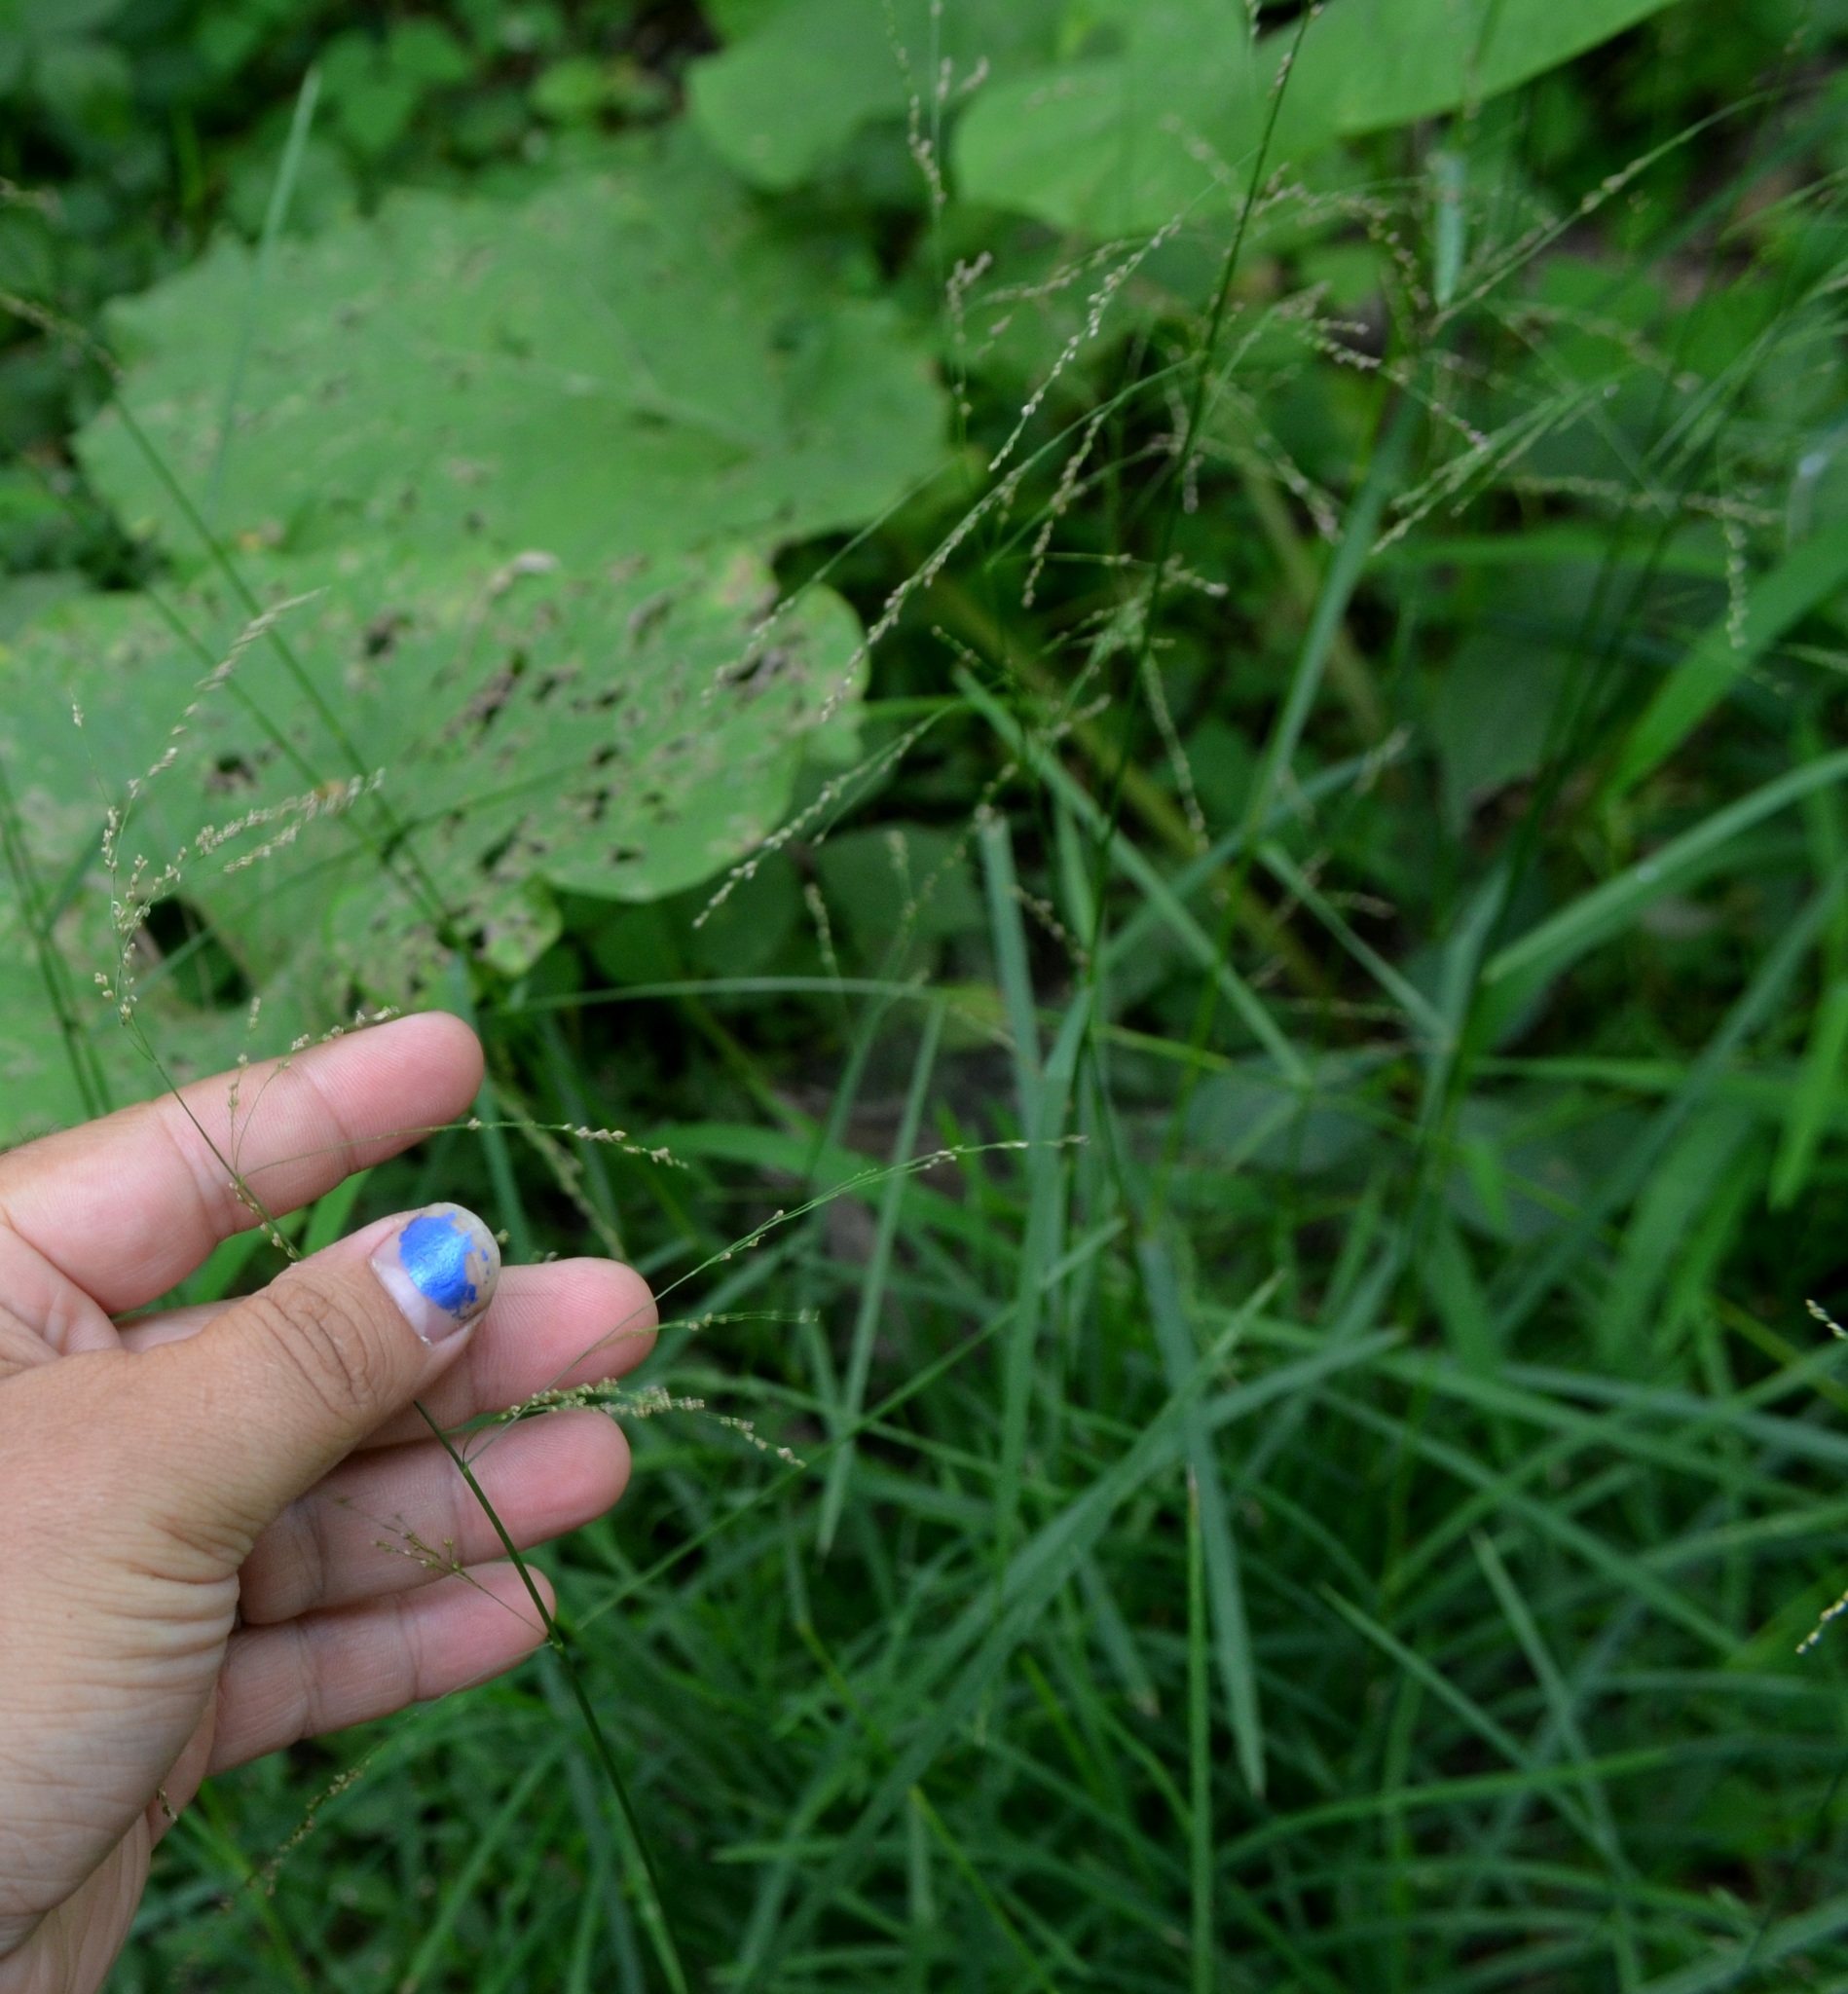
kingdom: Plantae
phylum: Tracheophyta
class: Liliopsida
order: Poales
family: Poaceae
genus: Glyceria
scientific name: Glyceria striata
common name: Fowl manna grass
